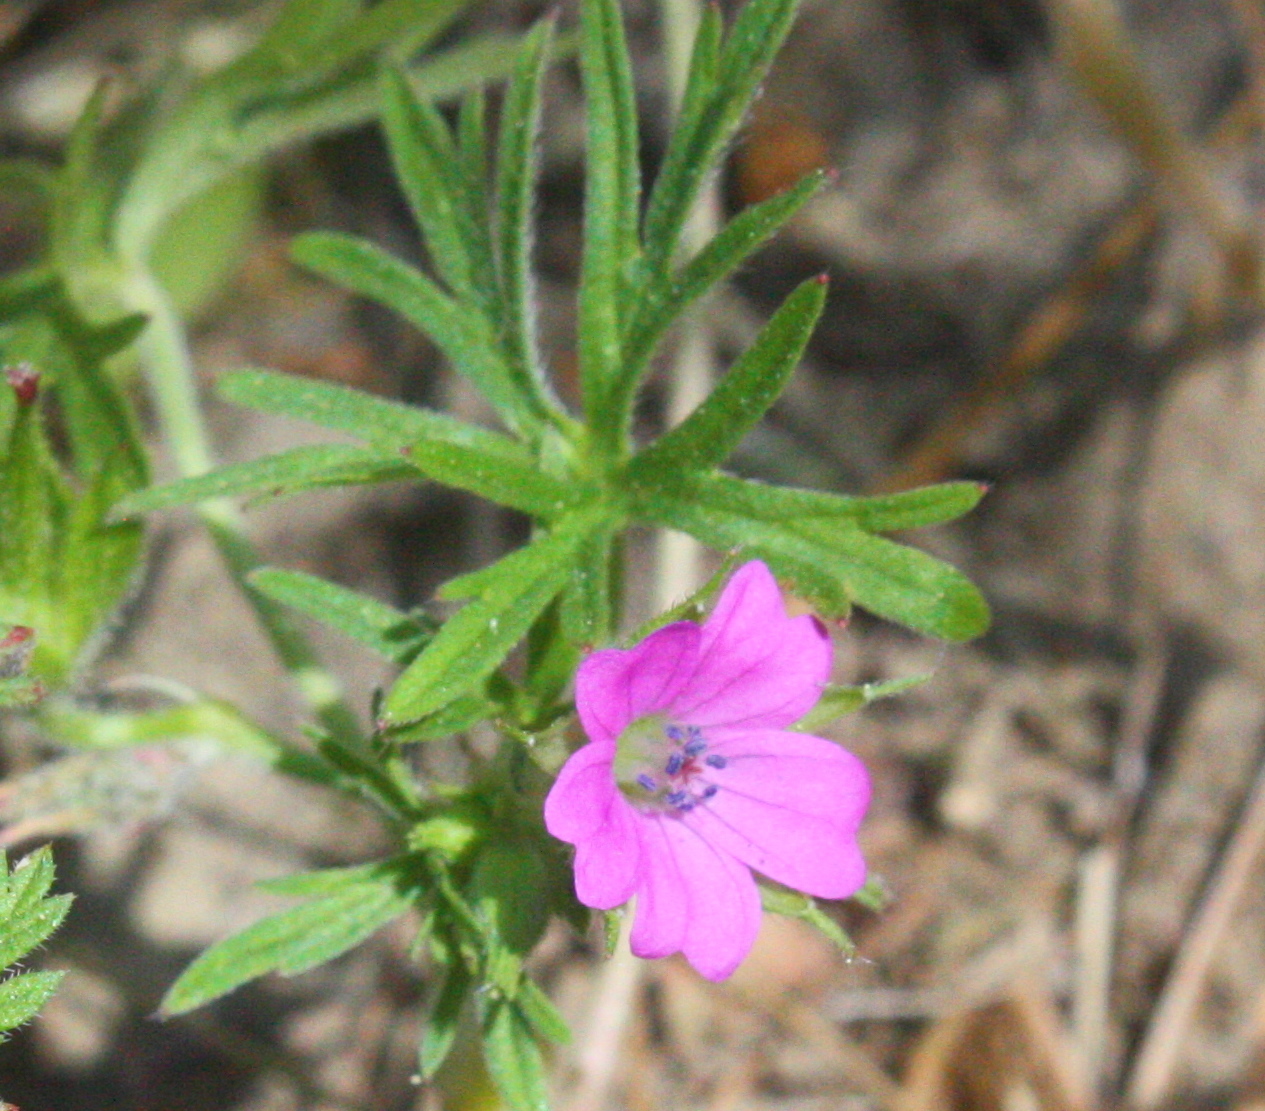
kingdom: Plantae
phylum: Tracheophyta
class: Magnoliopsida
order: Geraniales
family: Geraniaceae
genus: Geranium
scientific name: Geranium dissectum
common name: Cut-leaved crane's-bill
